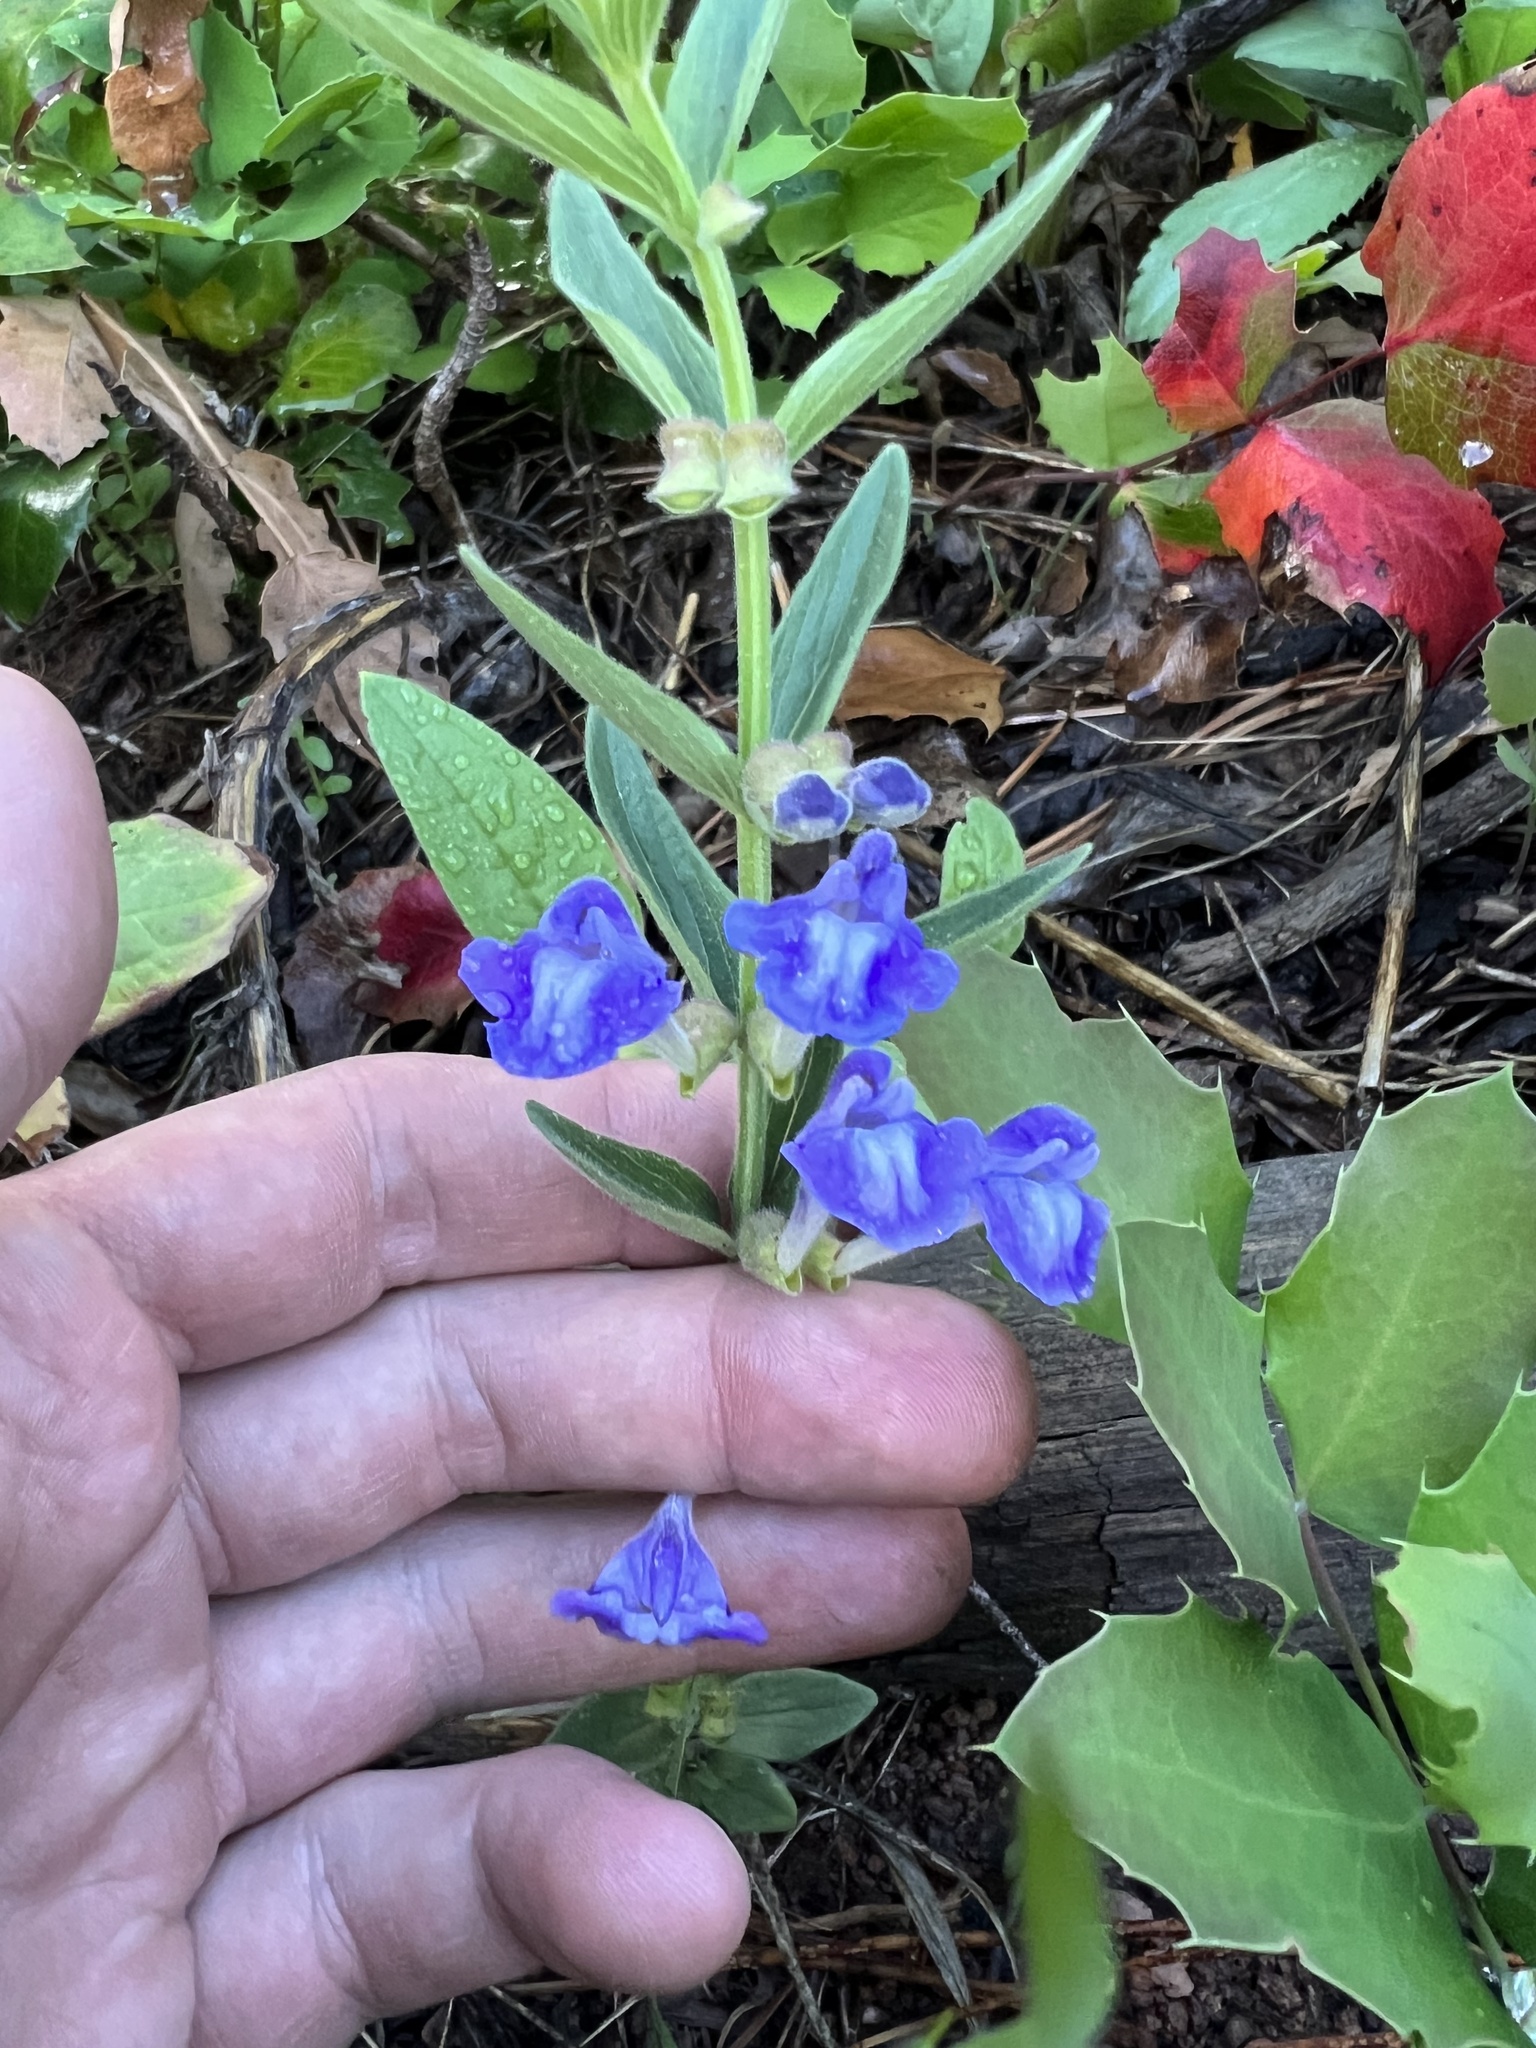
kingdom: Plantae
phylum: Tracheophyta
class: Magnoliopsida
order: Lamiales
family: Lamiaceae
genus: Scutellaria
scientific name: Scutellaria brittonii
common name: Britton's skullcap
